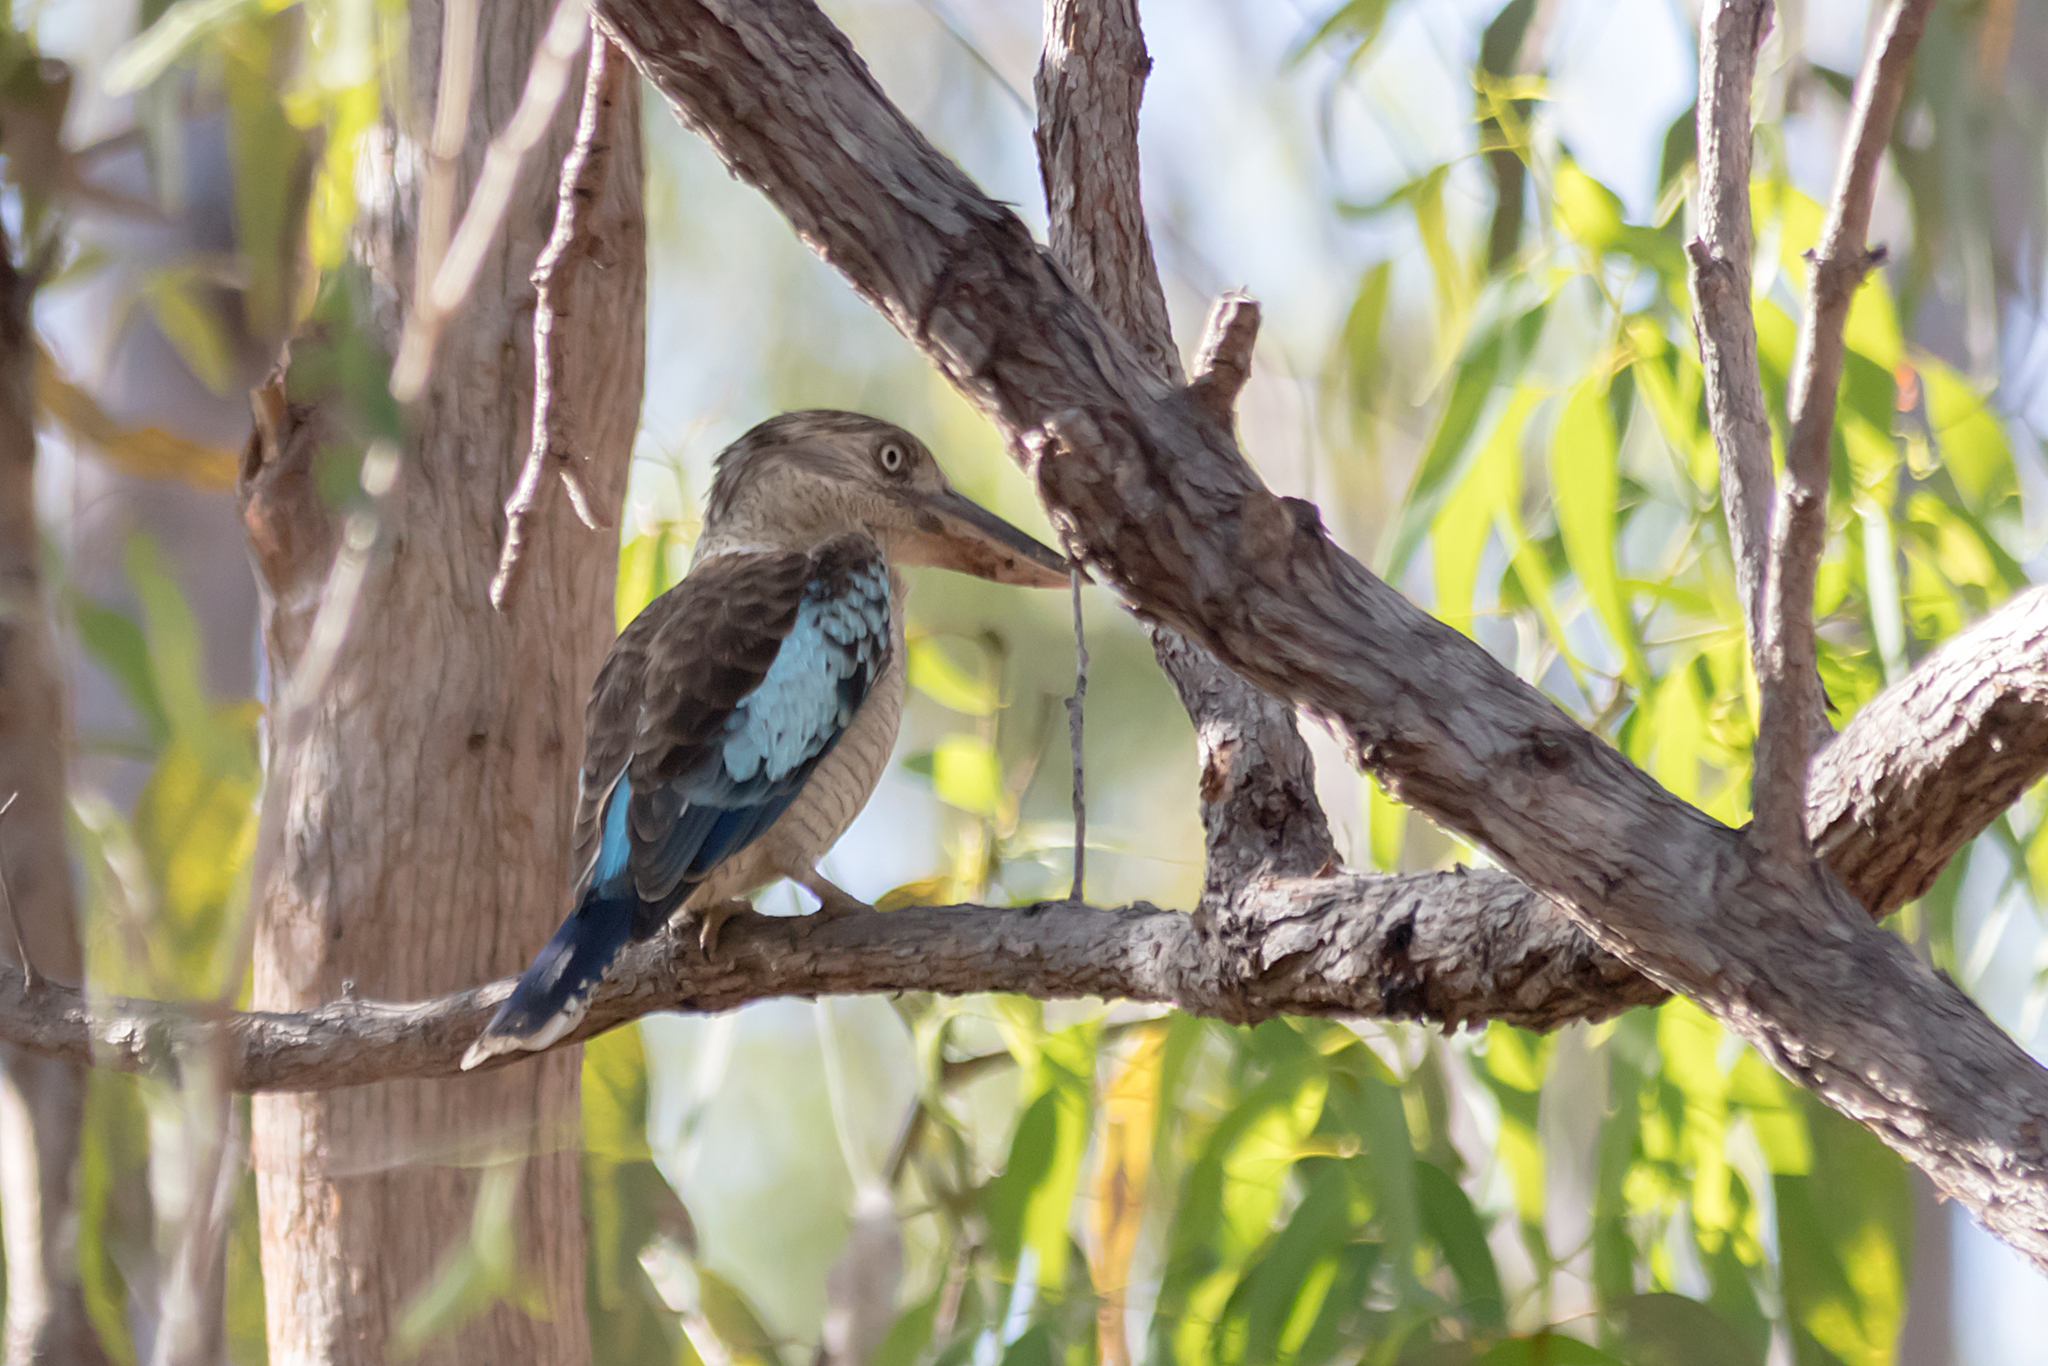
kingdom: Animalia
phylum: Chordata
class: Aves
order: Coraciiformes
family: Alcedinidae
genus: Dacelo
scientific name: Dacelo leachii
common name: Blue-winged kookaburra
